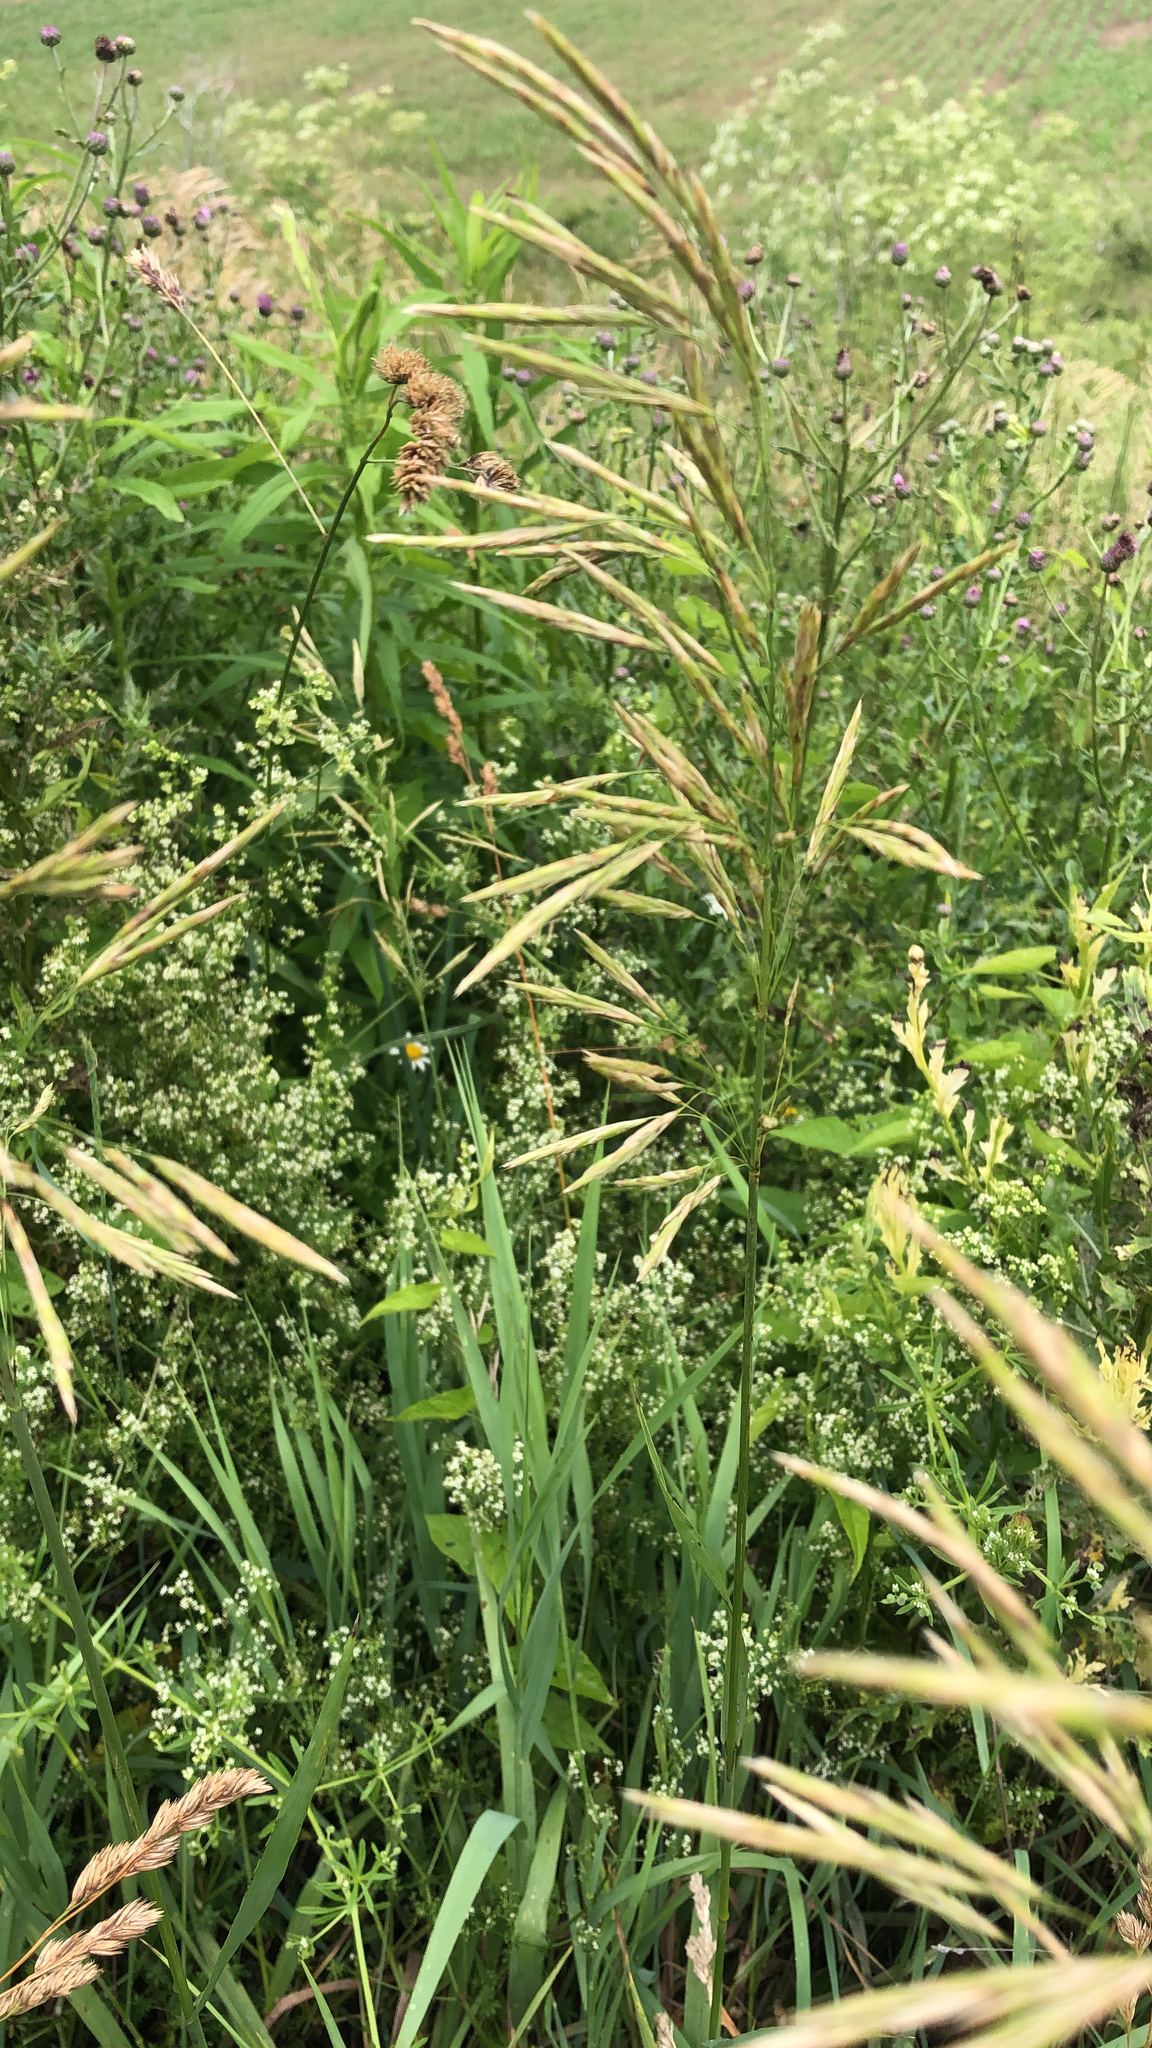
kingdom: Plantae
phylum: Tracheophyta
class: Liliopsida
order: Poales
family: Poaceae
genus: Bromus
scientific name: Bromus inermis
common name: Smooth brome
